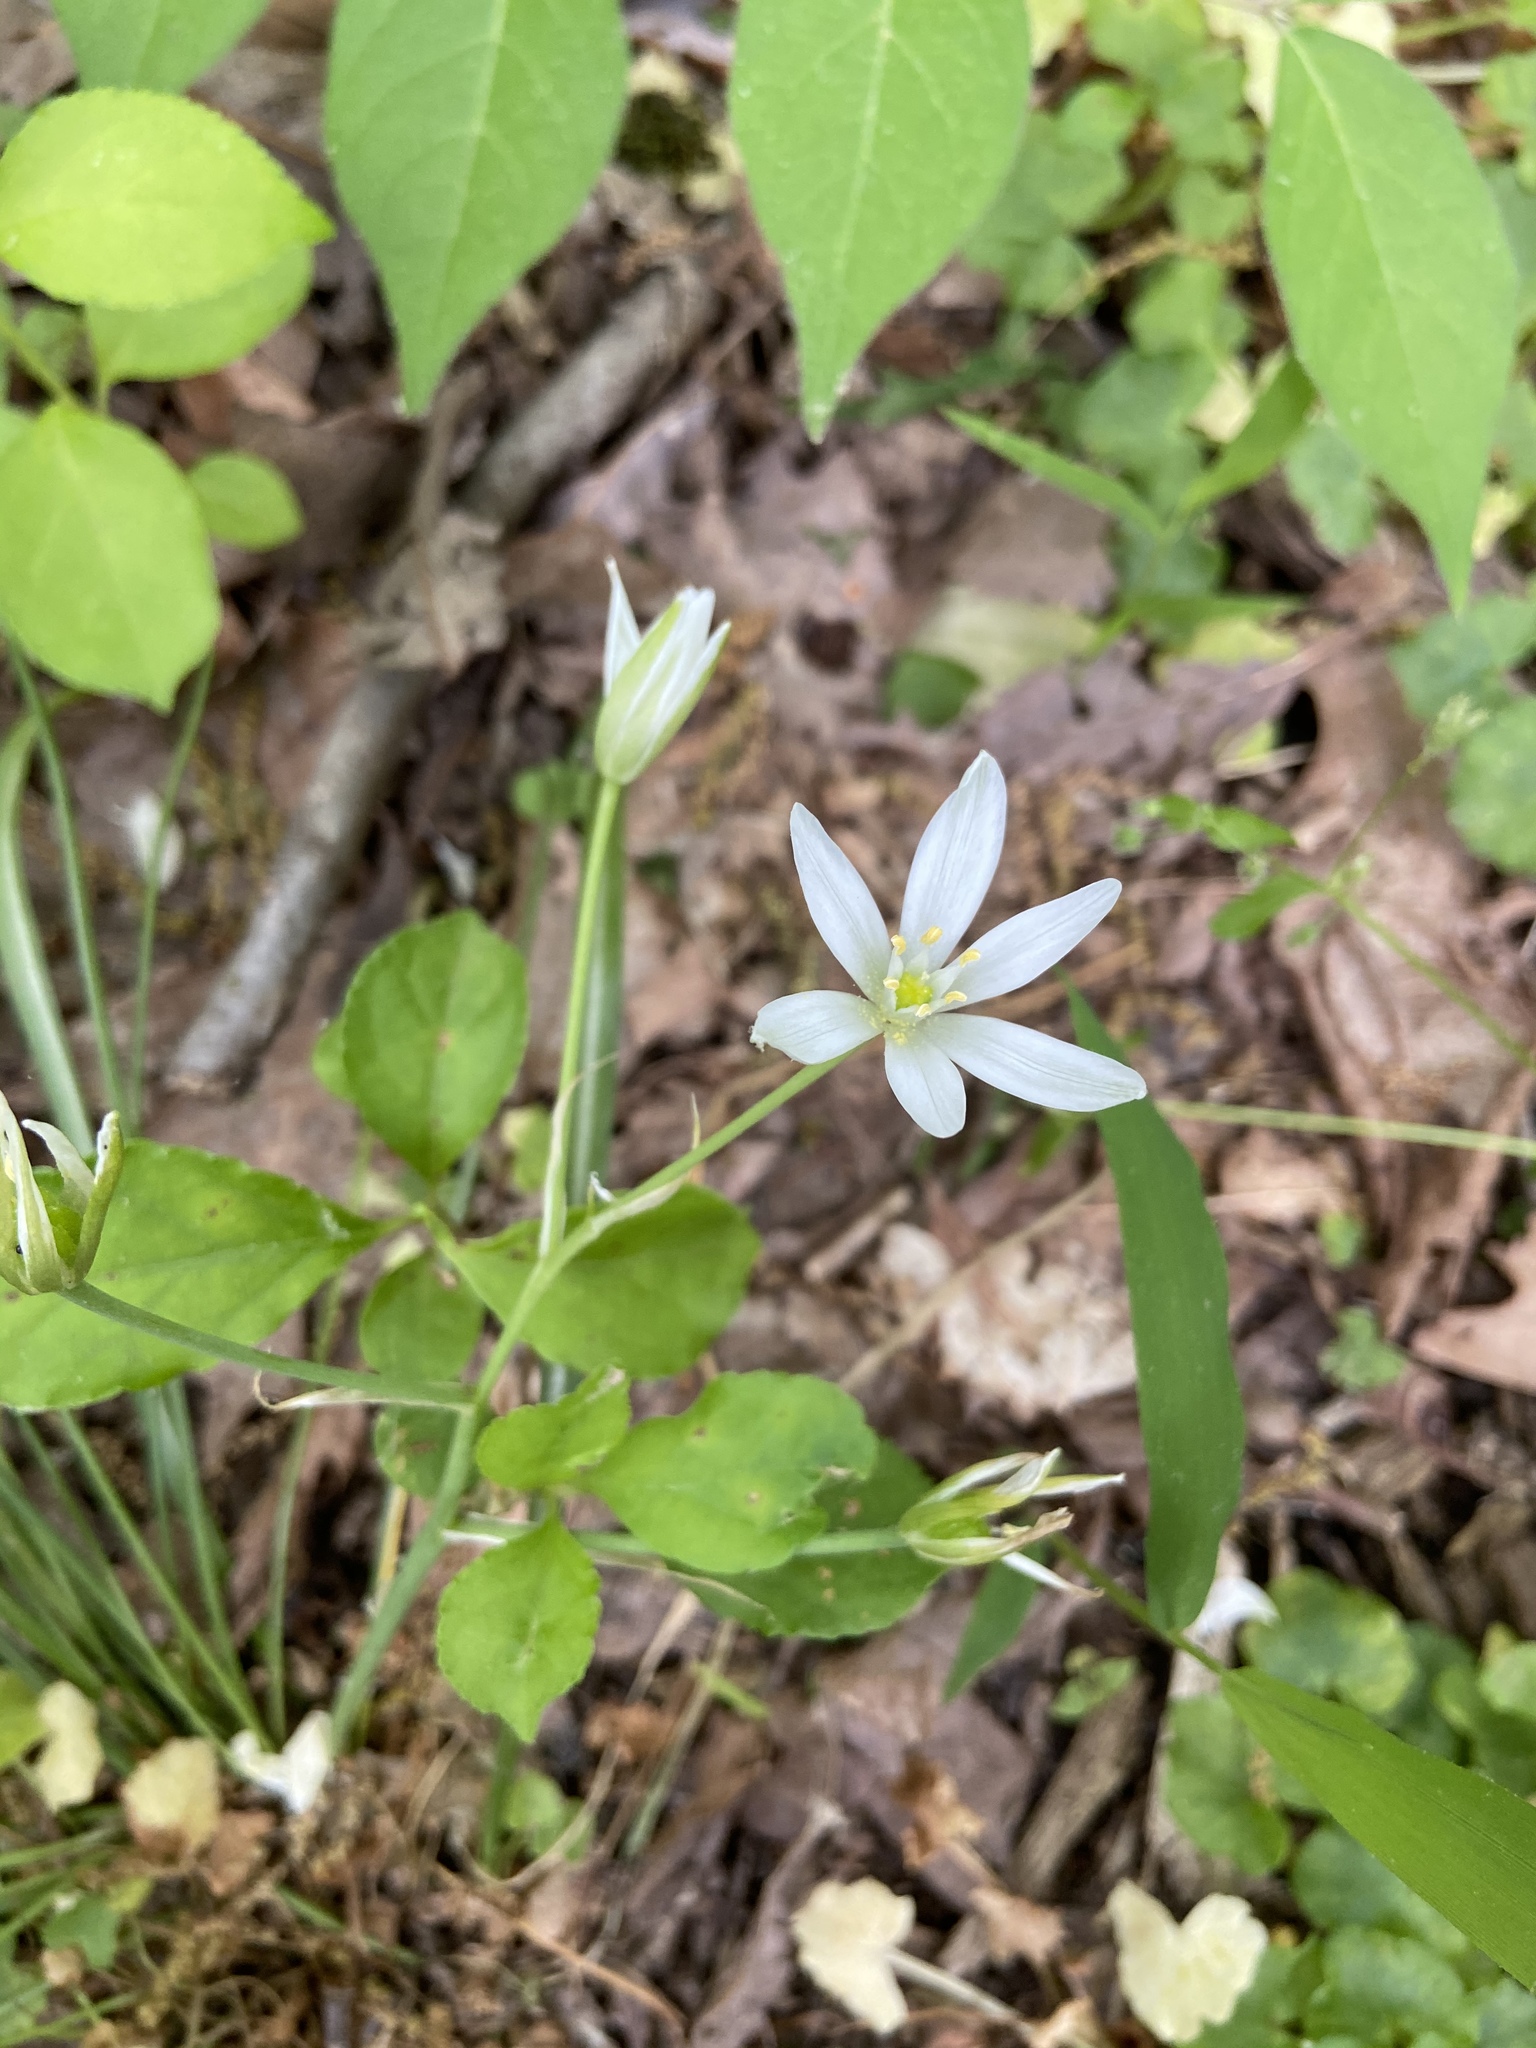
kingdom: Plantae
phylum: Tracheophyta
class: Liliopsida
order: Asparagales
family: Asparagaceae
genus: Ornithogalum
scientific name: Ornithogalum umbellatum
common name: Garden star-of-bethlehem
